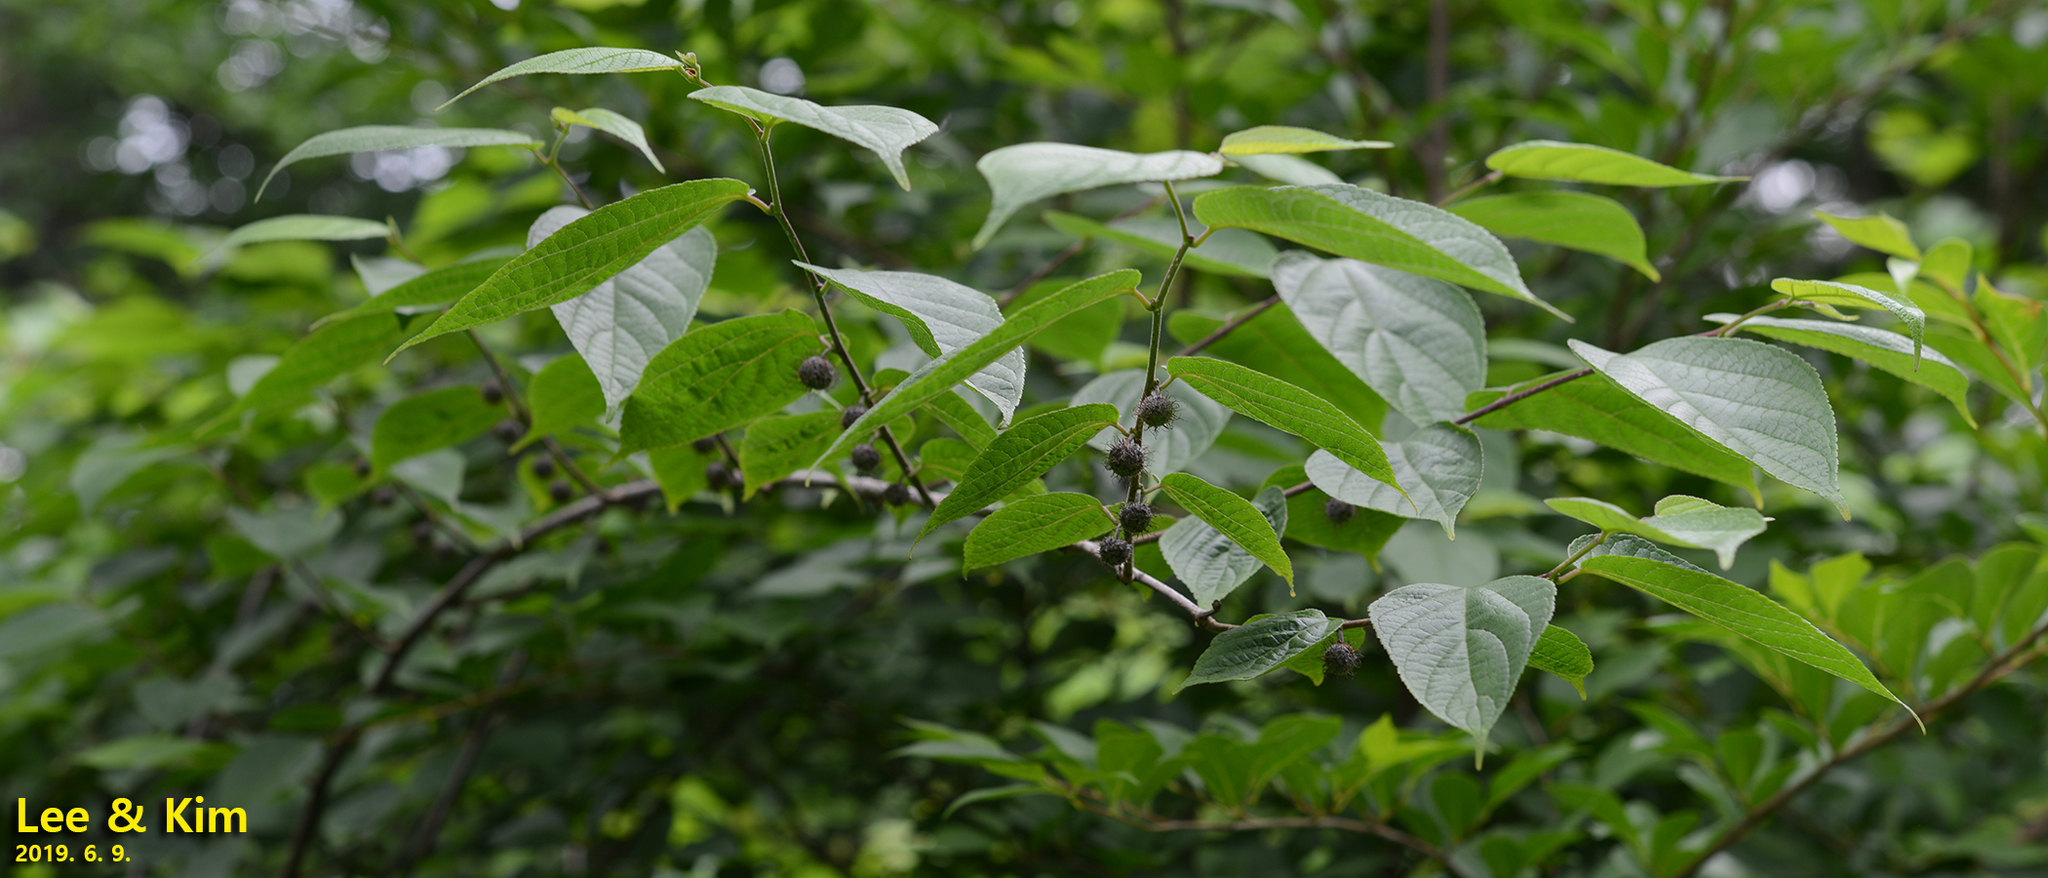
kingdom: Plantae
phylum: Tracheophyta
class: Magnoliopsida
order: Rosales
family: Moraceae
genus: Broussonetia
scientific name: Broussonetia papyrifera
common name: Paper mulberry
